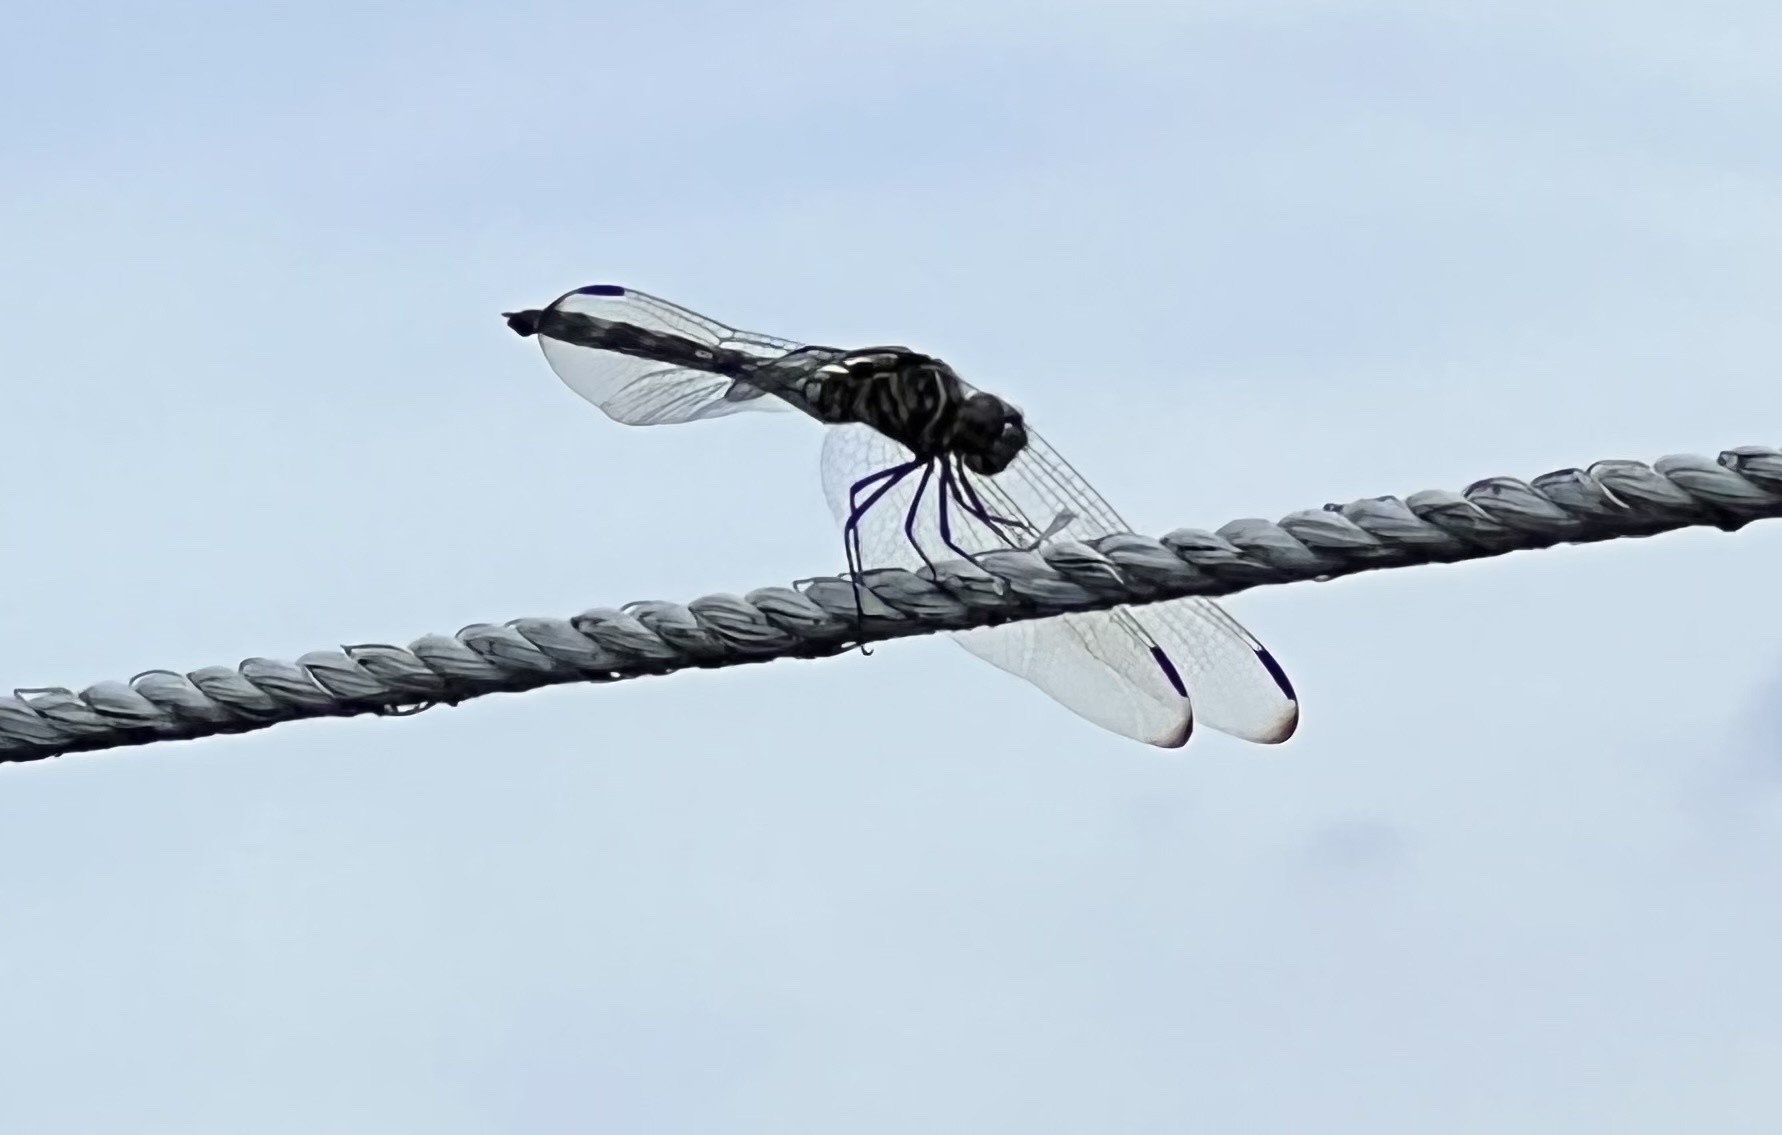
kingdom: Animalia
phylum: Arthropoda
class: Insecta
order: Odonata
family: Libellulidae
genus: Dythemis
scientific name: Dythemis velox
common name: Swift setwing
